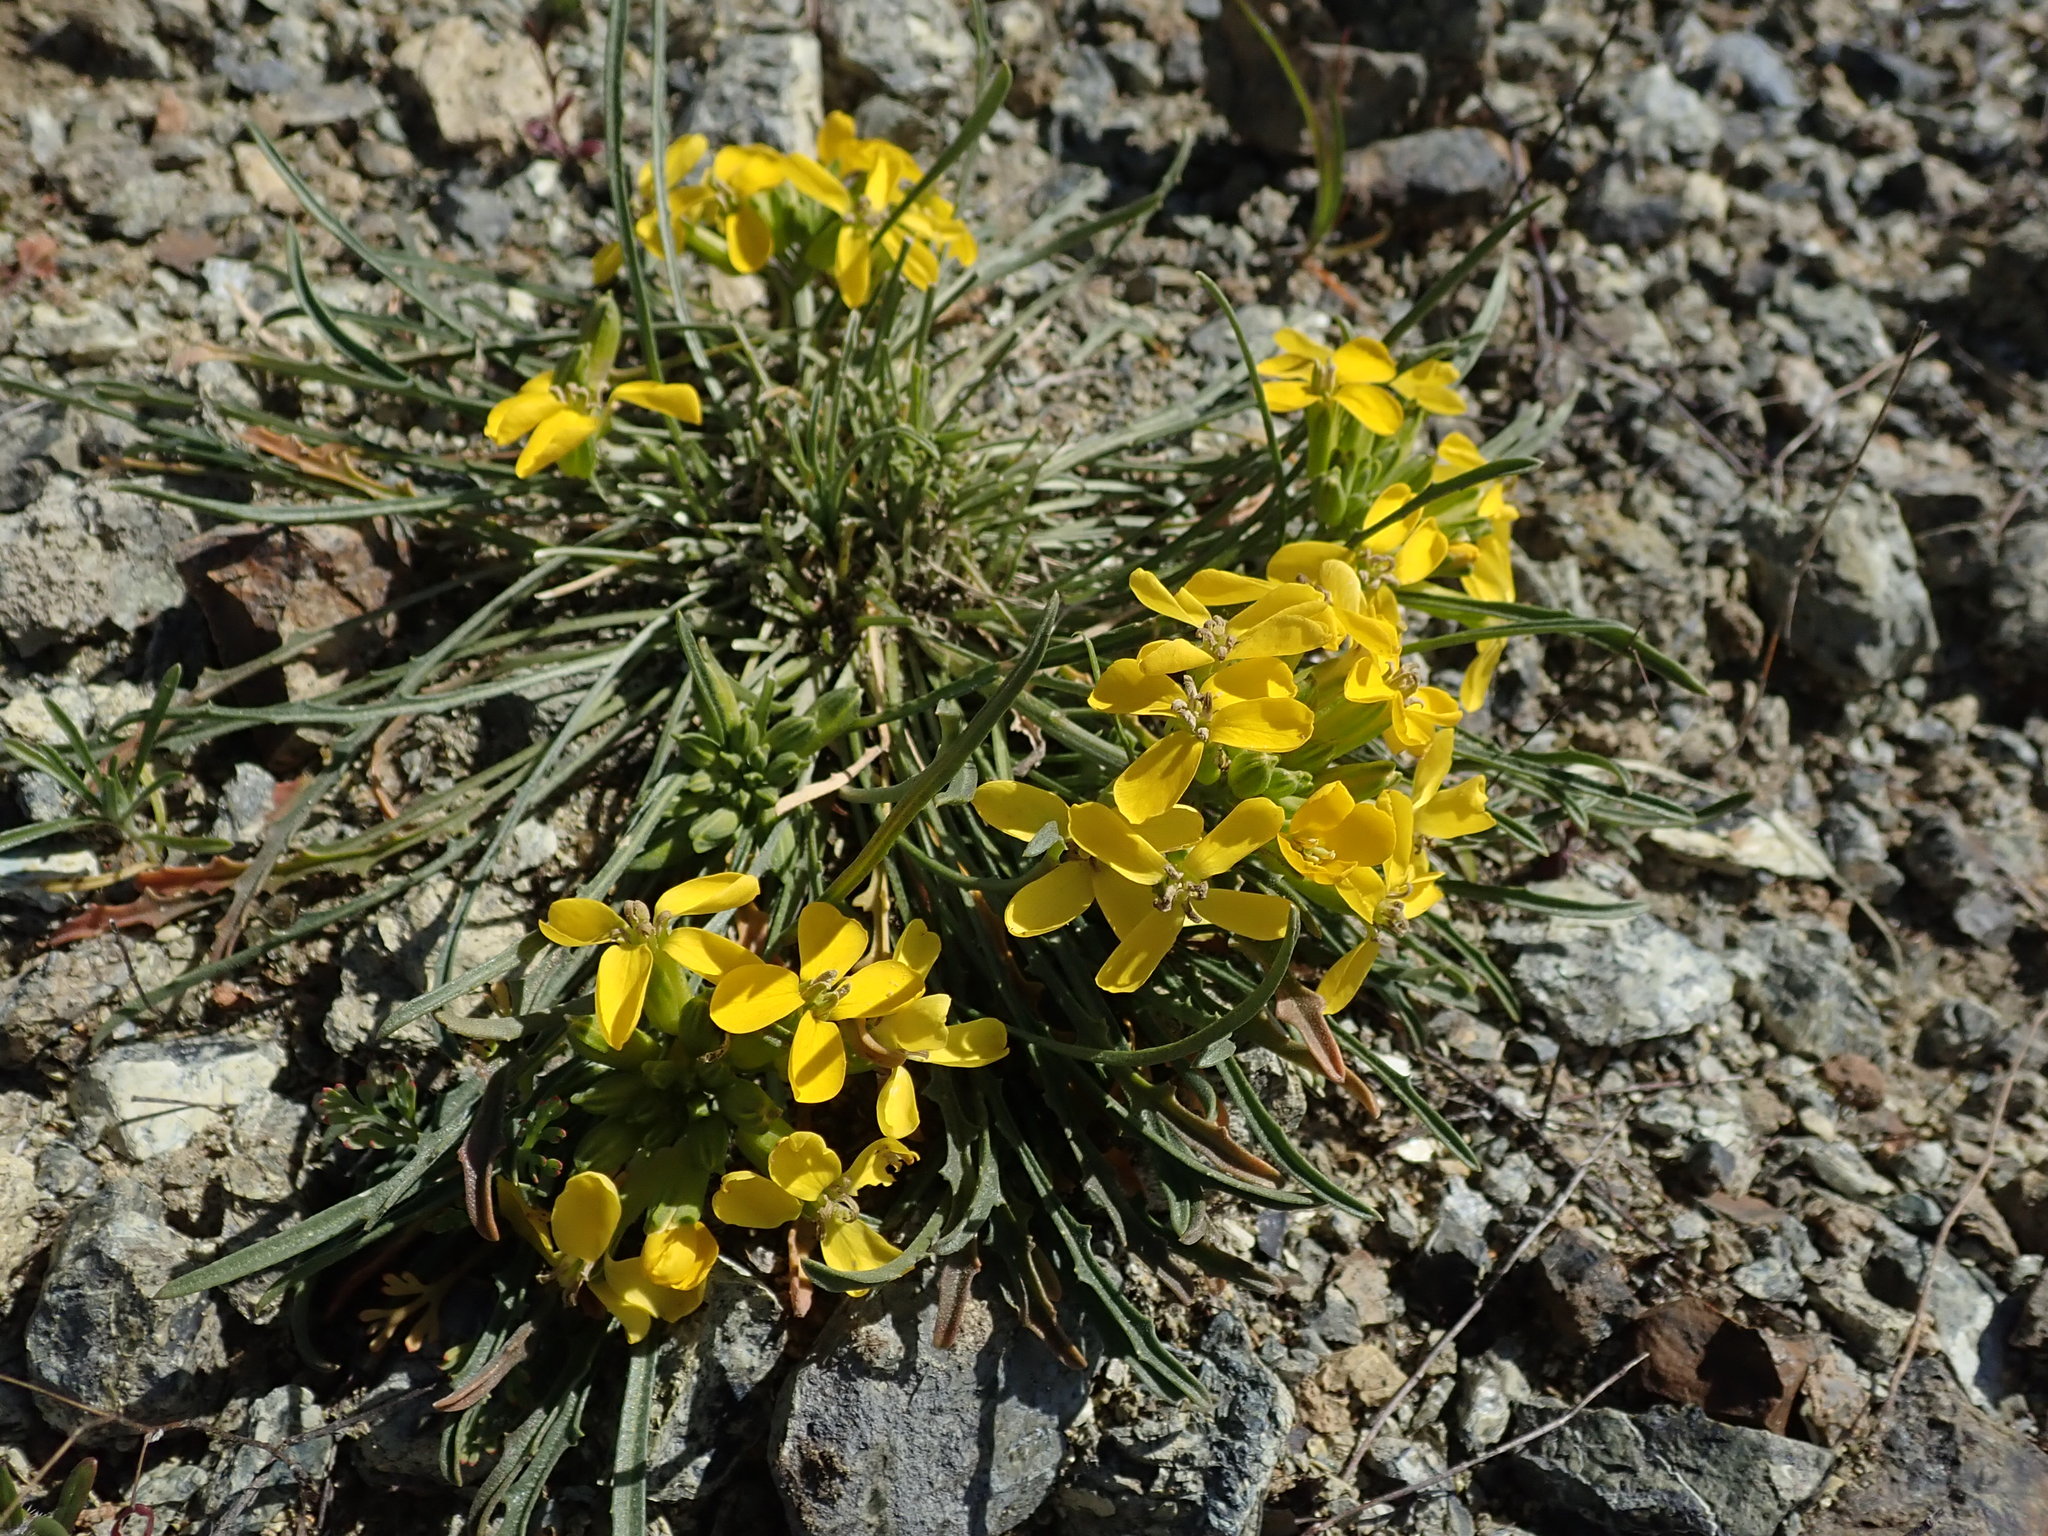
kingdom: Plantae
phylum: Tracheophyta
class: Magnoliopsida
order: Brassicales
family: Brassicaceae
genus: Erysimum
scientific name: Erysimum franciscanum
